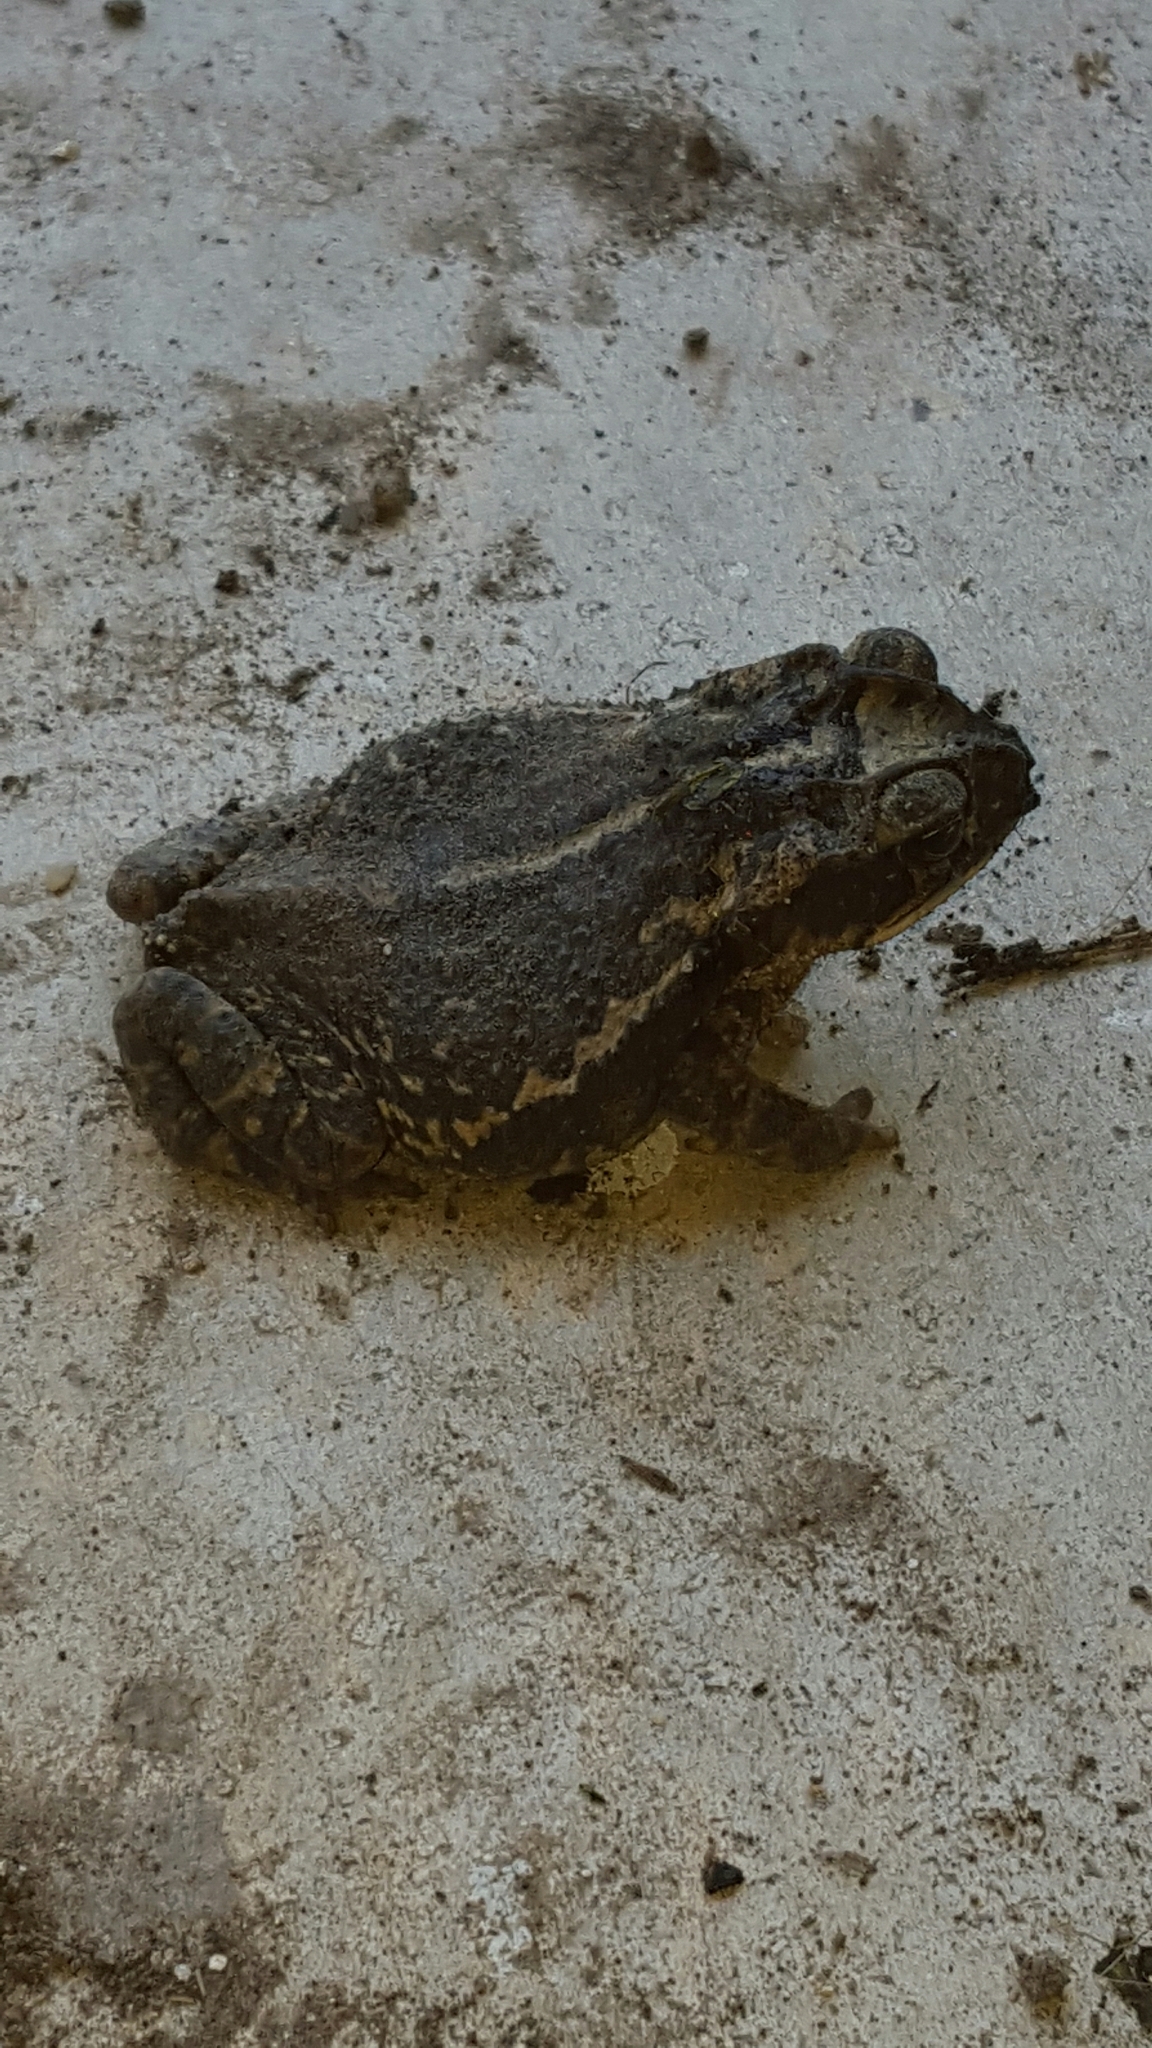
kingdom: Animalia
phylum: Chordata
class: Amphibia
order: Anura
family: Bufonidae
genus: Incilius
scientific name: Incilius nebulifer
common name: Gulf coast toad
